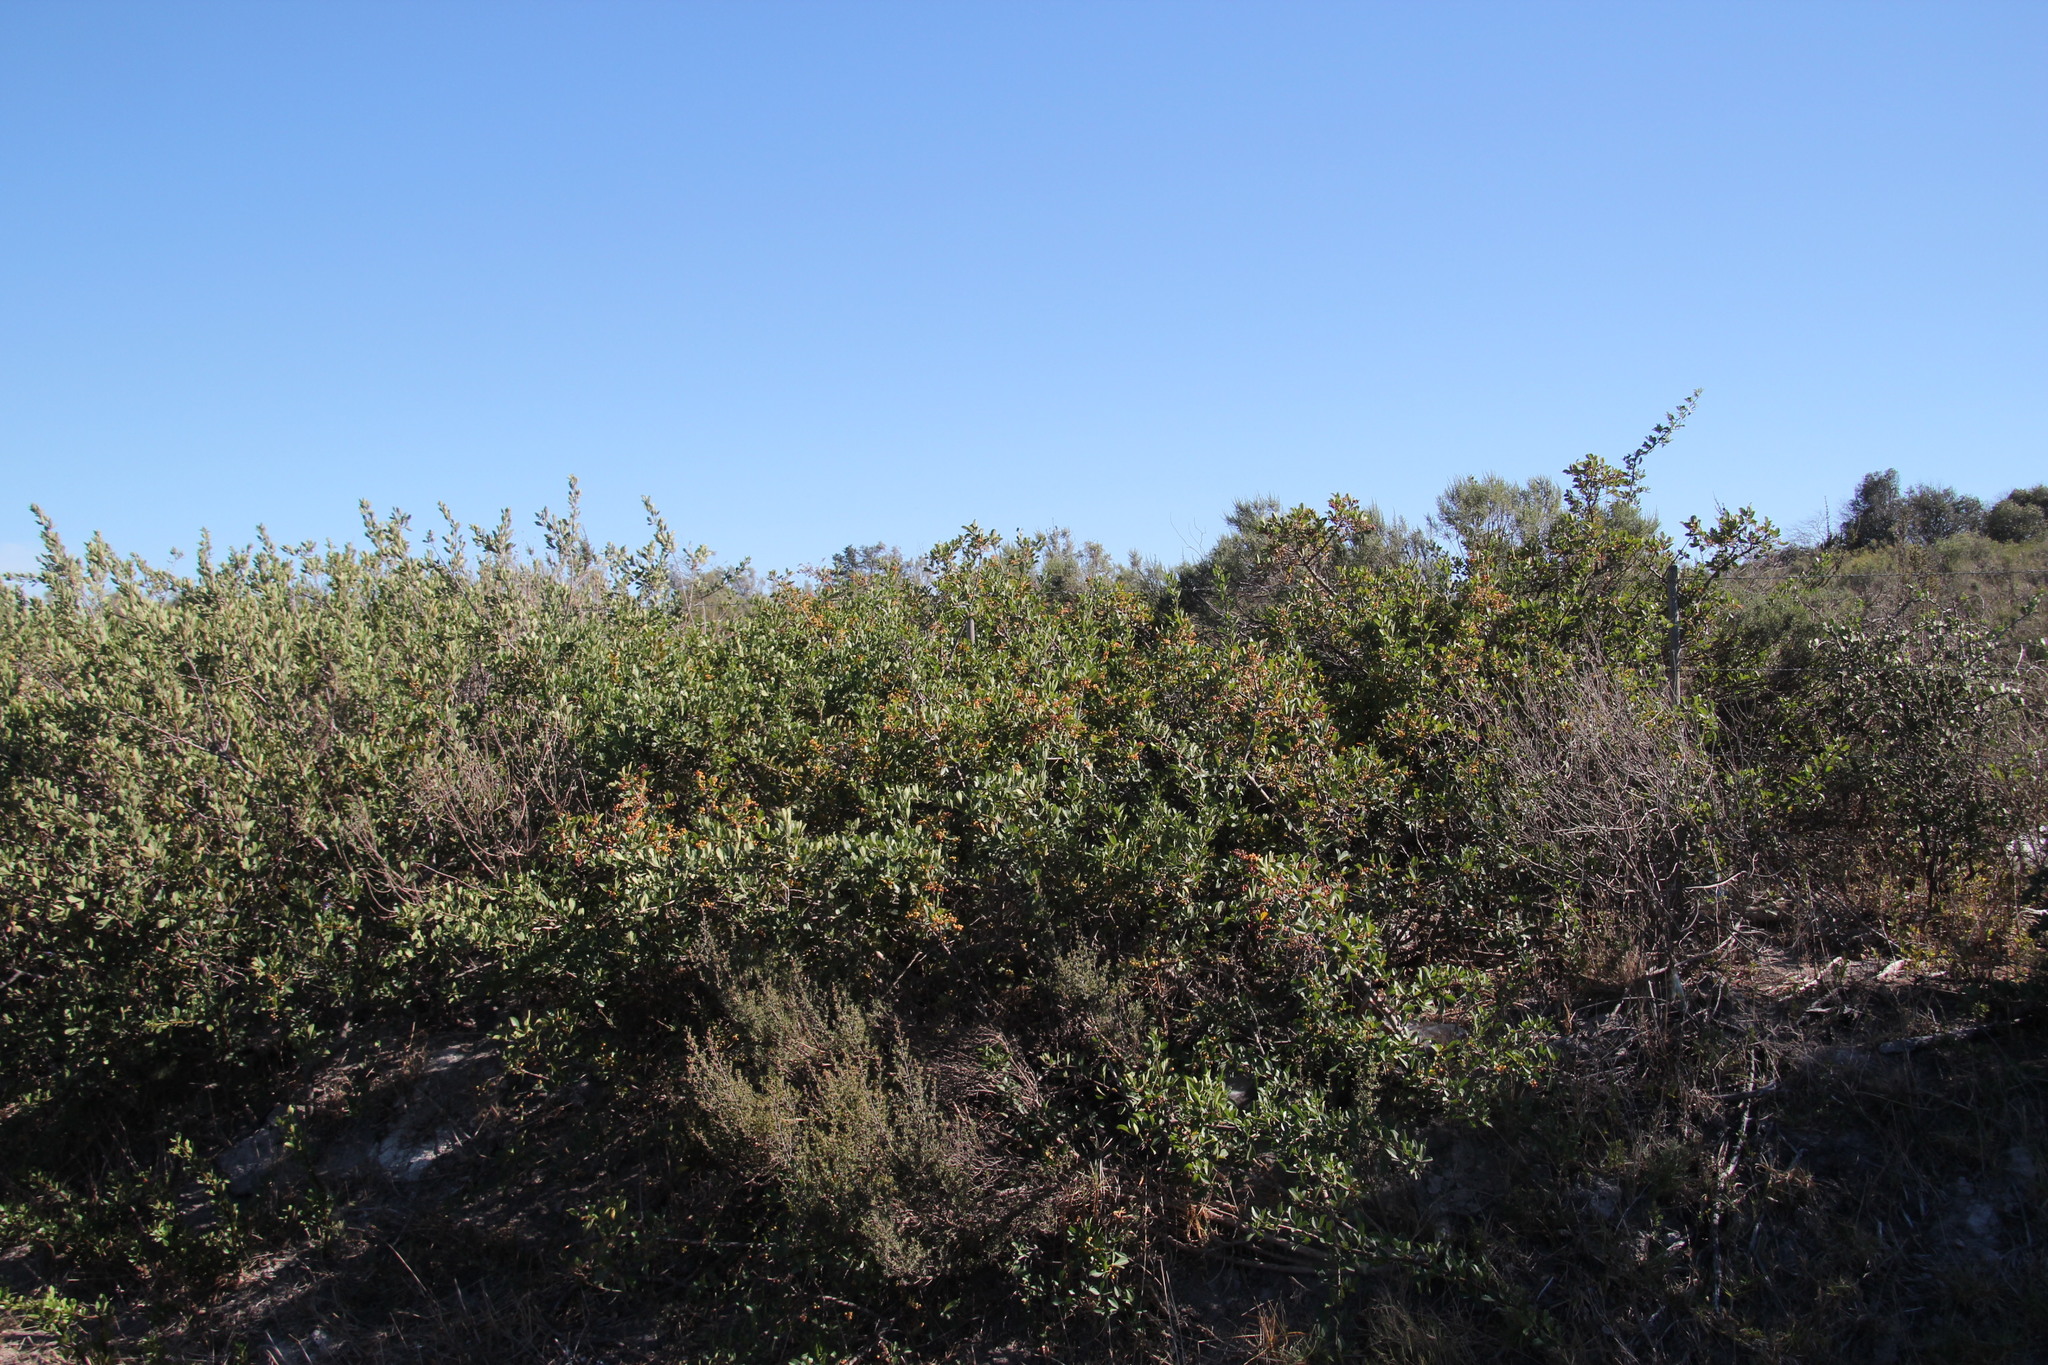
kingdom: Plantae
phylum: Tracheophyta
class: Magnoliopsida
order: Sapindales
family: Anacardiaceae
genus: Searsia
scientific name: Searsia laevigata
